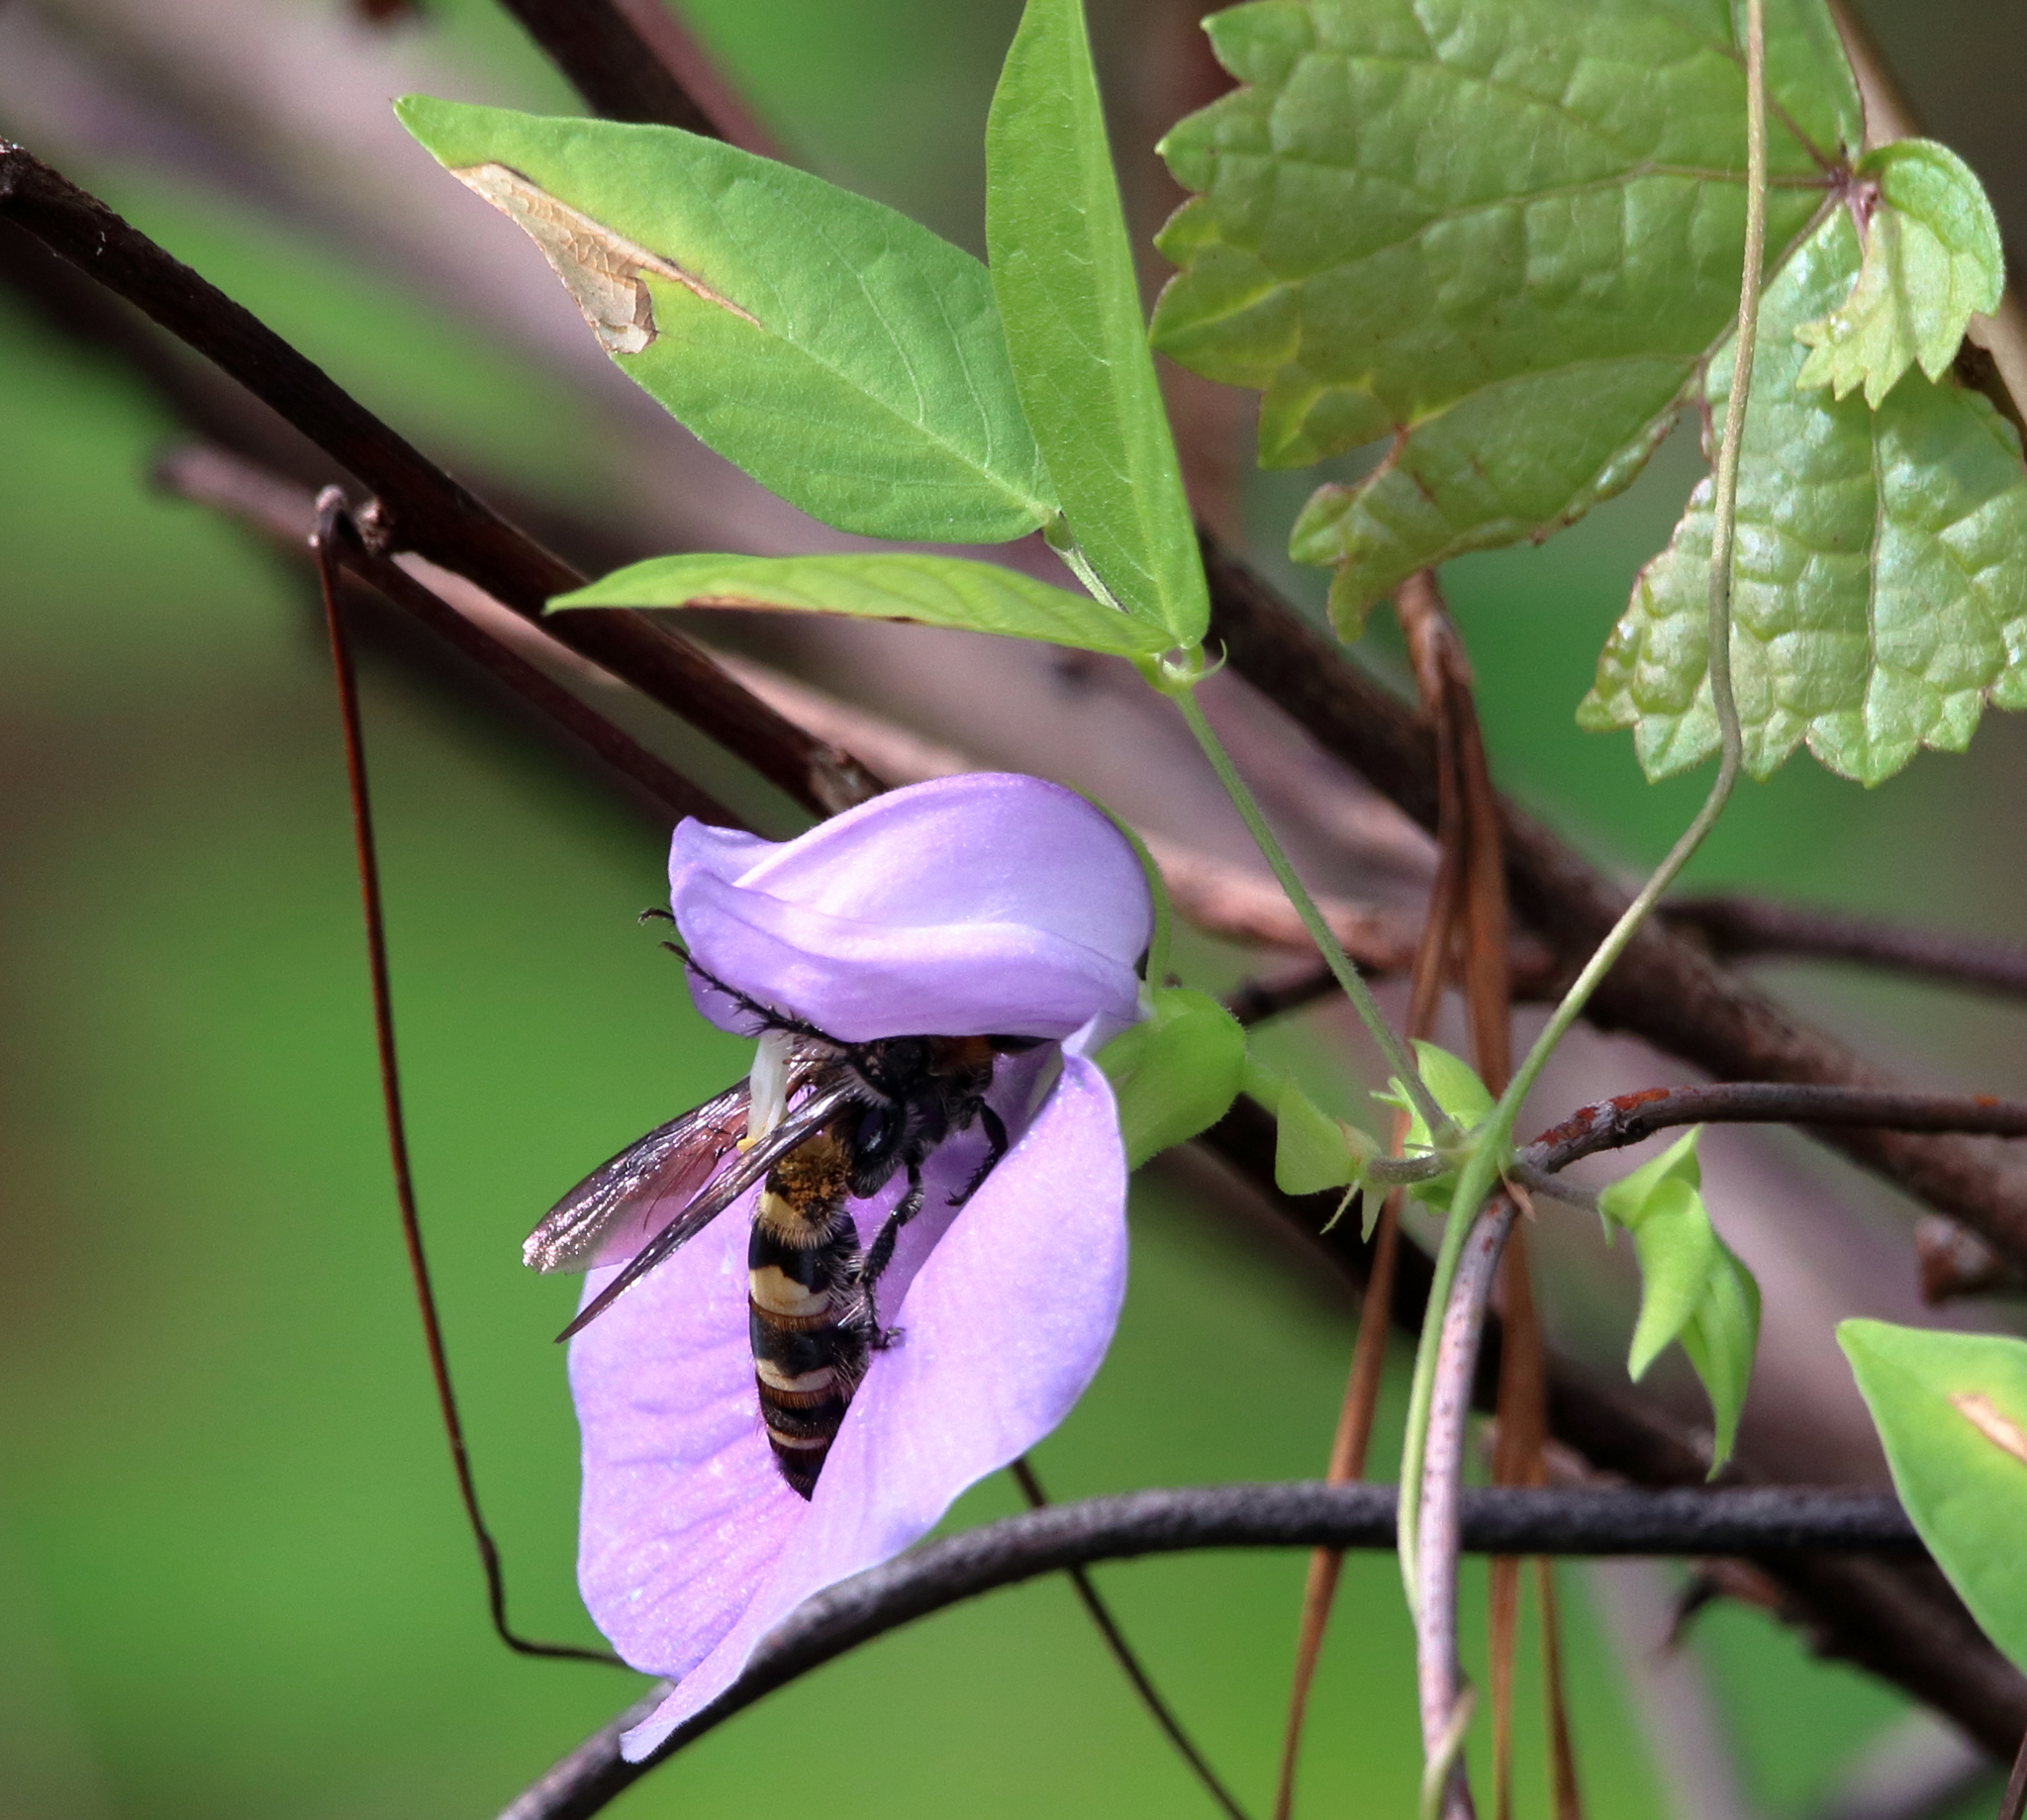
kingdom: Animalia
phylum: Arthropoda
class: Insecta
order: Hymenoptera
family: Scoliidae
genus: Dielis
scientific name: Dielis
